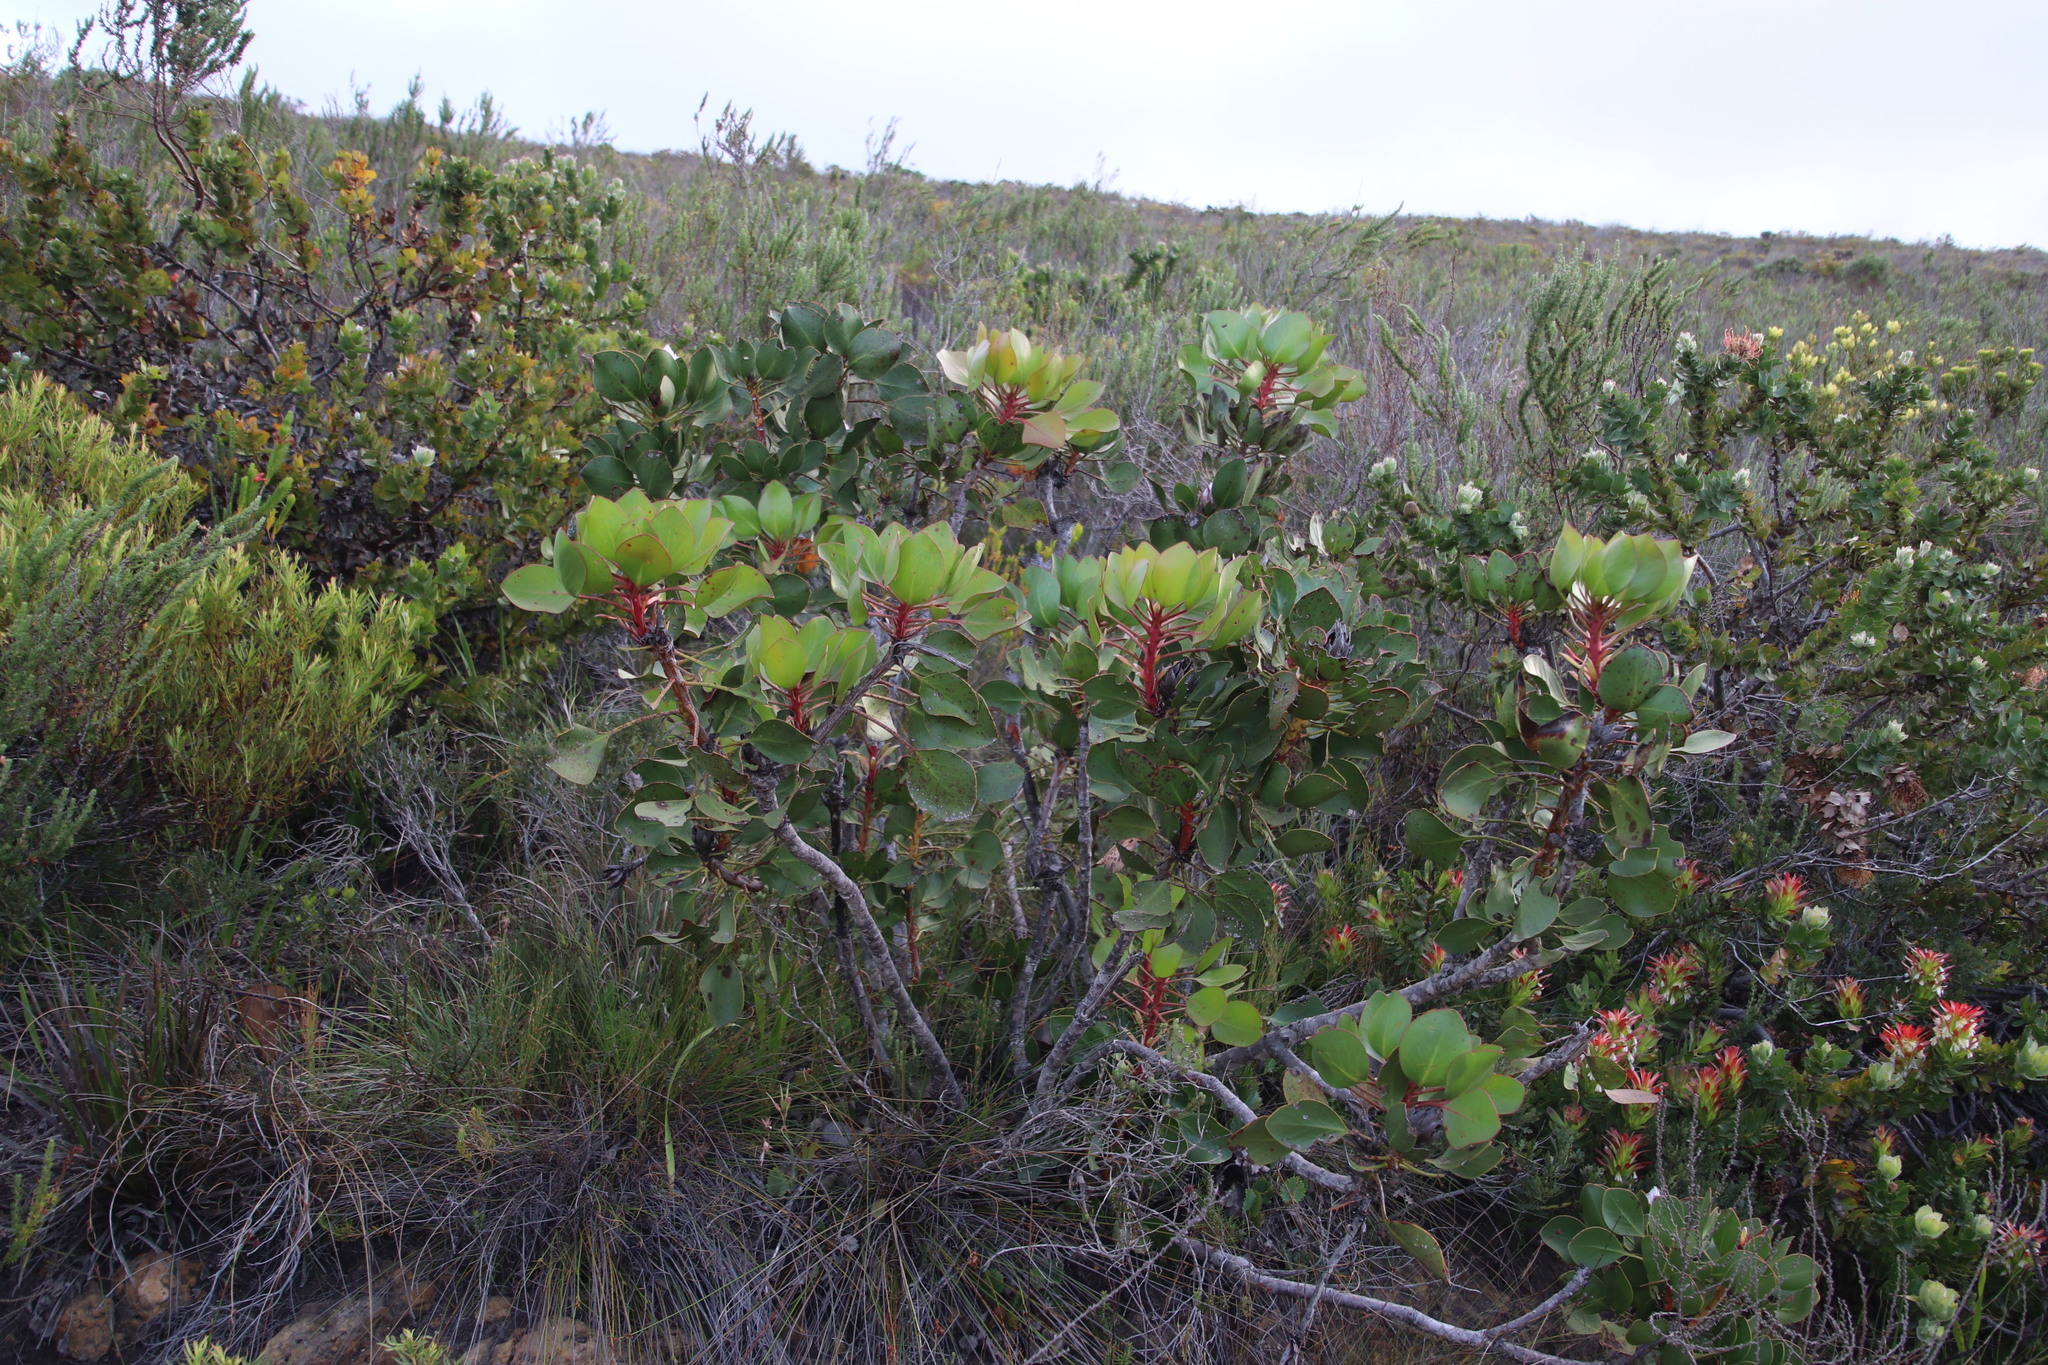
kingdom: Plantae
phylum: Tracheophyta
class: Magnoliopsida
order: Proteales
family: Proteaceae
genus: Protea
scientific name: Protea cynaroides
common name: King protea
